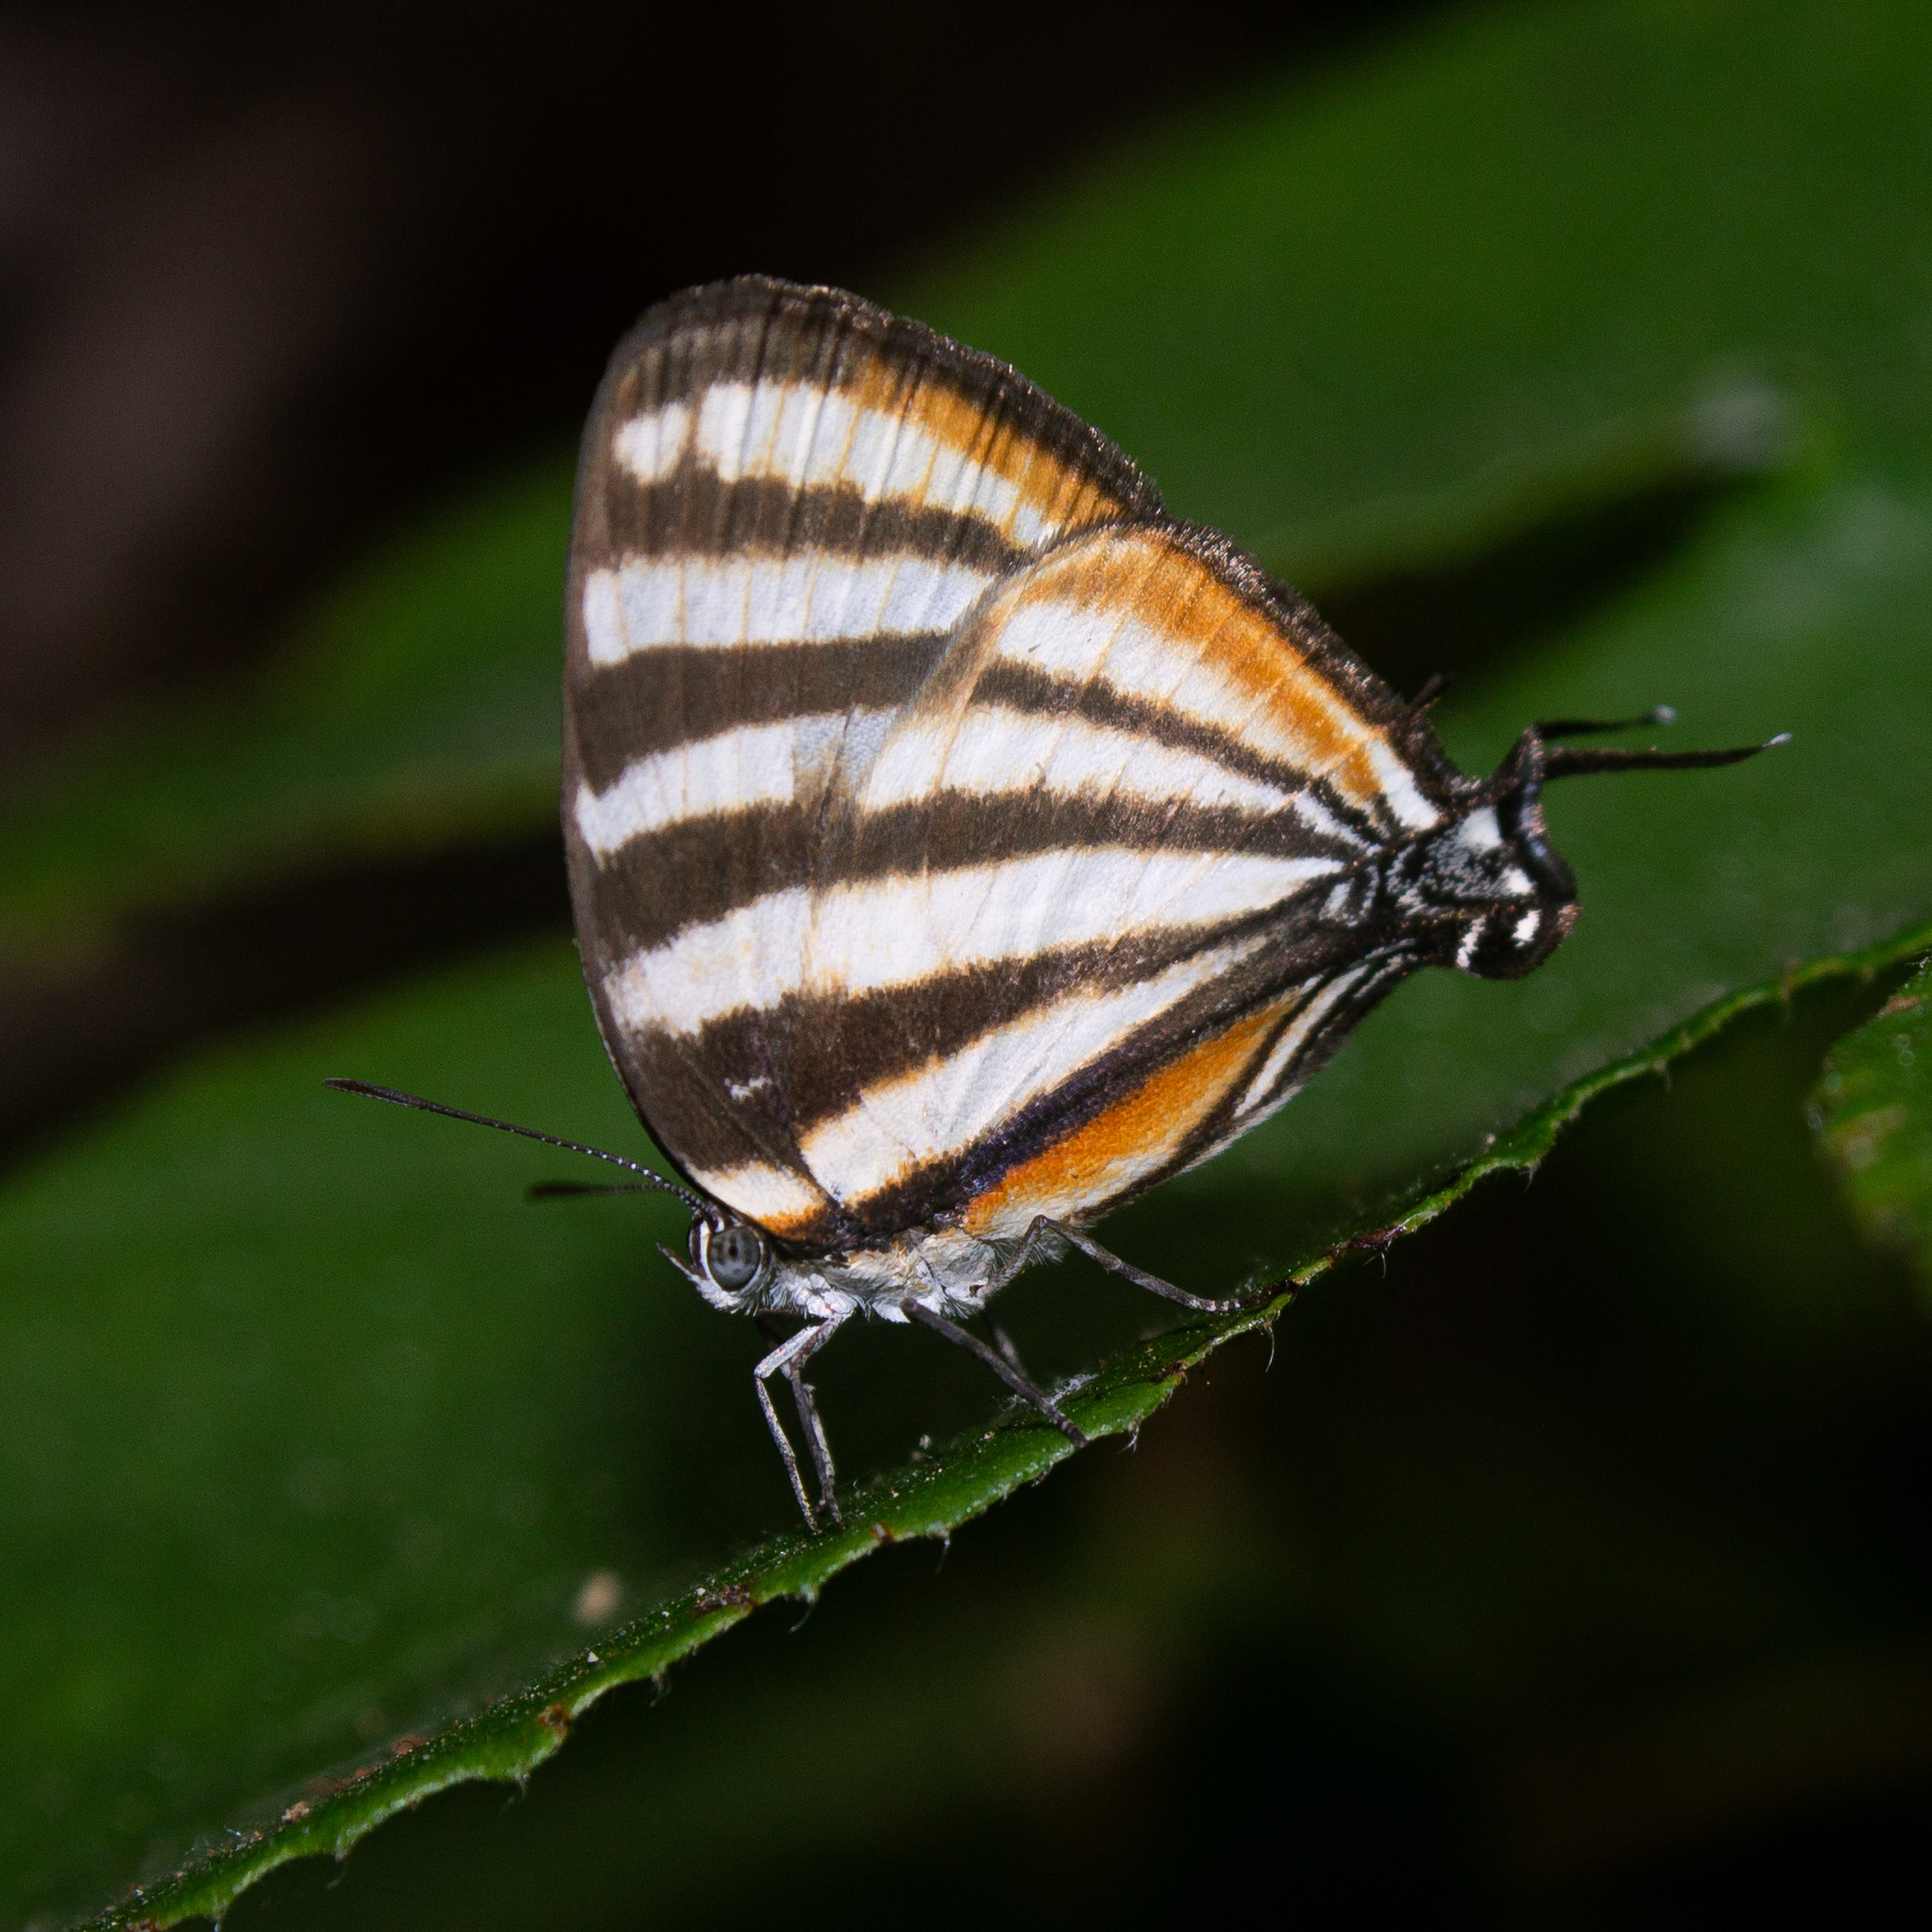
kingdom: Animalia
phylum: Arthropoda
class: Insecta
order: Lepidoptera
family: Lycaenidae
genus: Arawacus
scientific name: Arawacus lincoides
